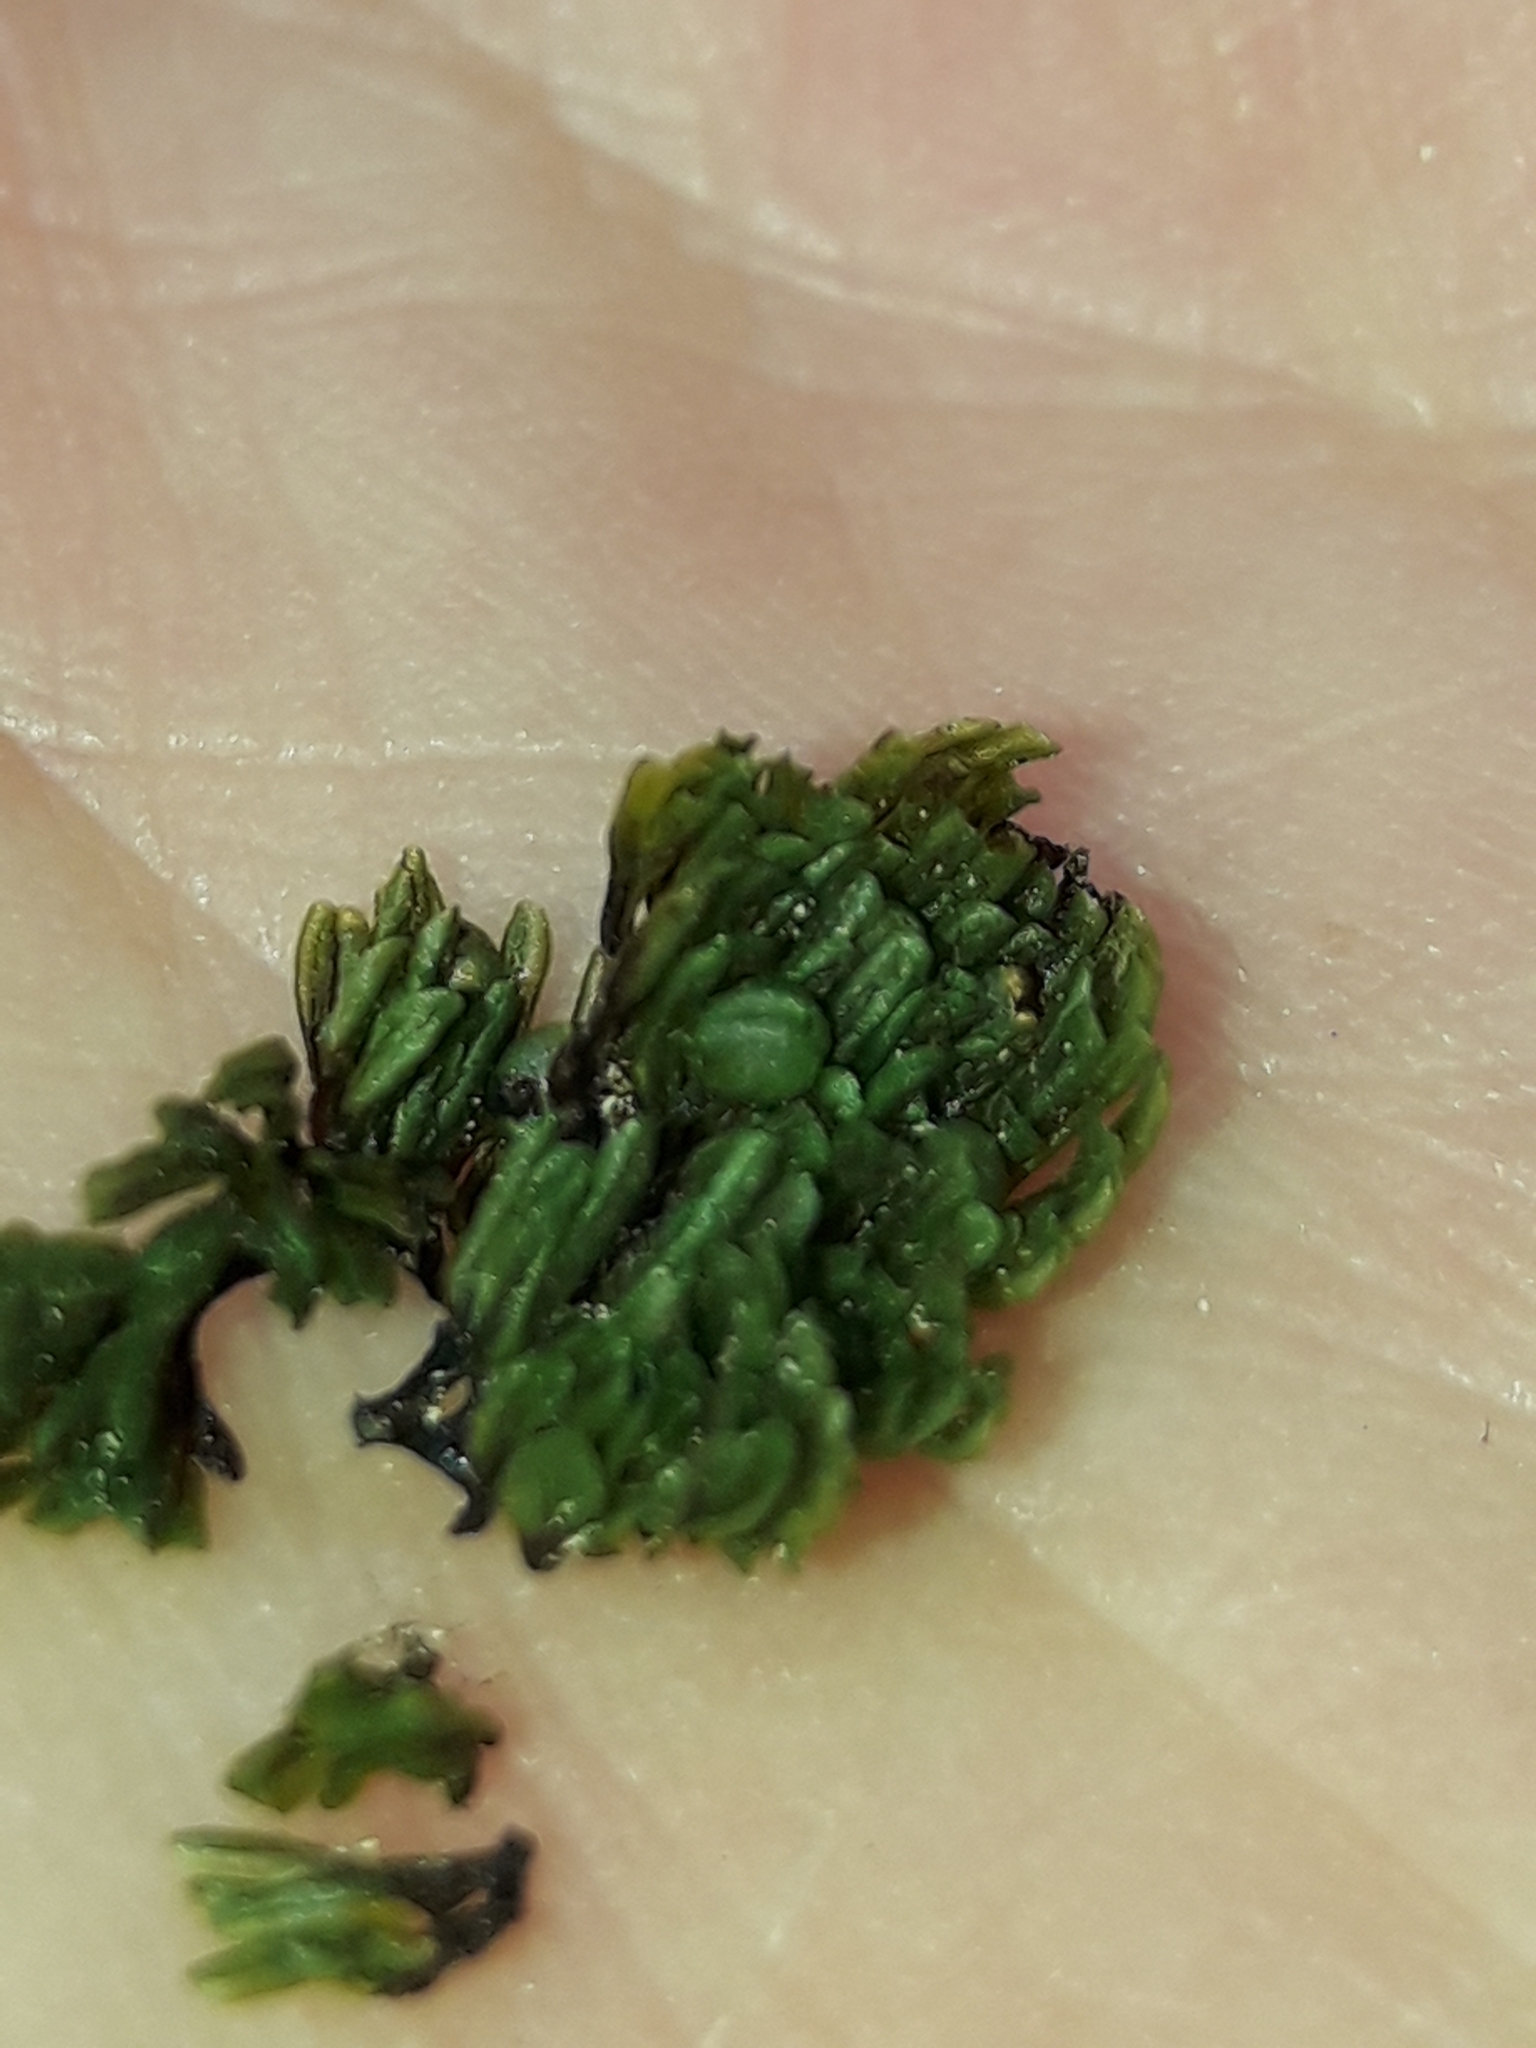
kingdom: Plantae
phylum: Tracheophyta
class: Polypodiopsida
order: Hymenophyllales
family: Hymenophyllaceae
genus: Hymenophyllum
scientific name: Hymenophyllum villosum
